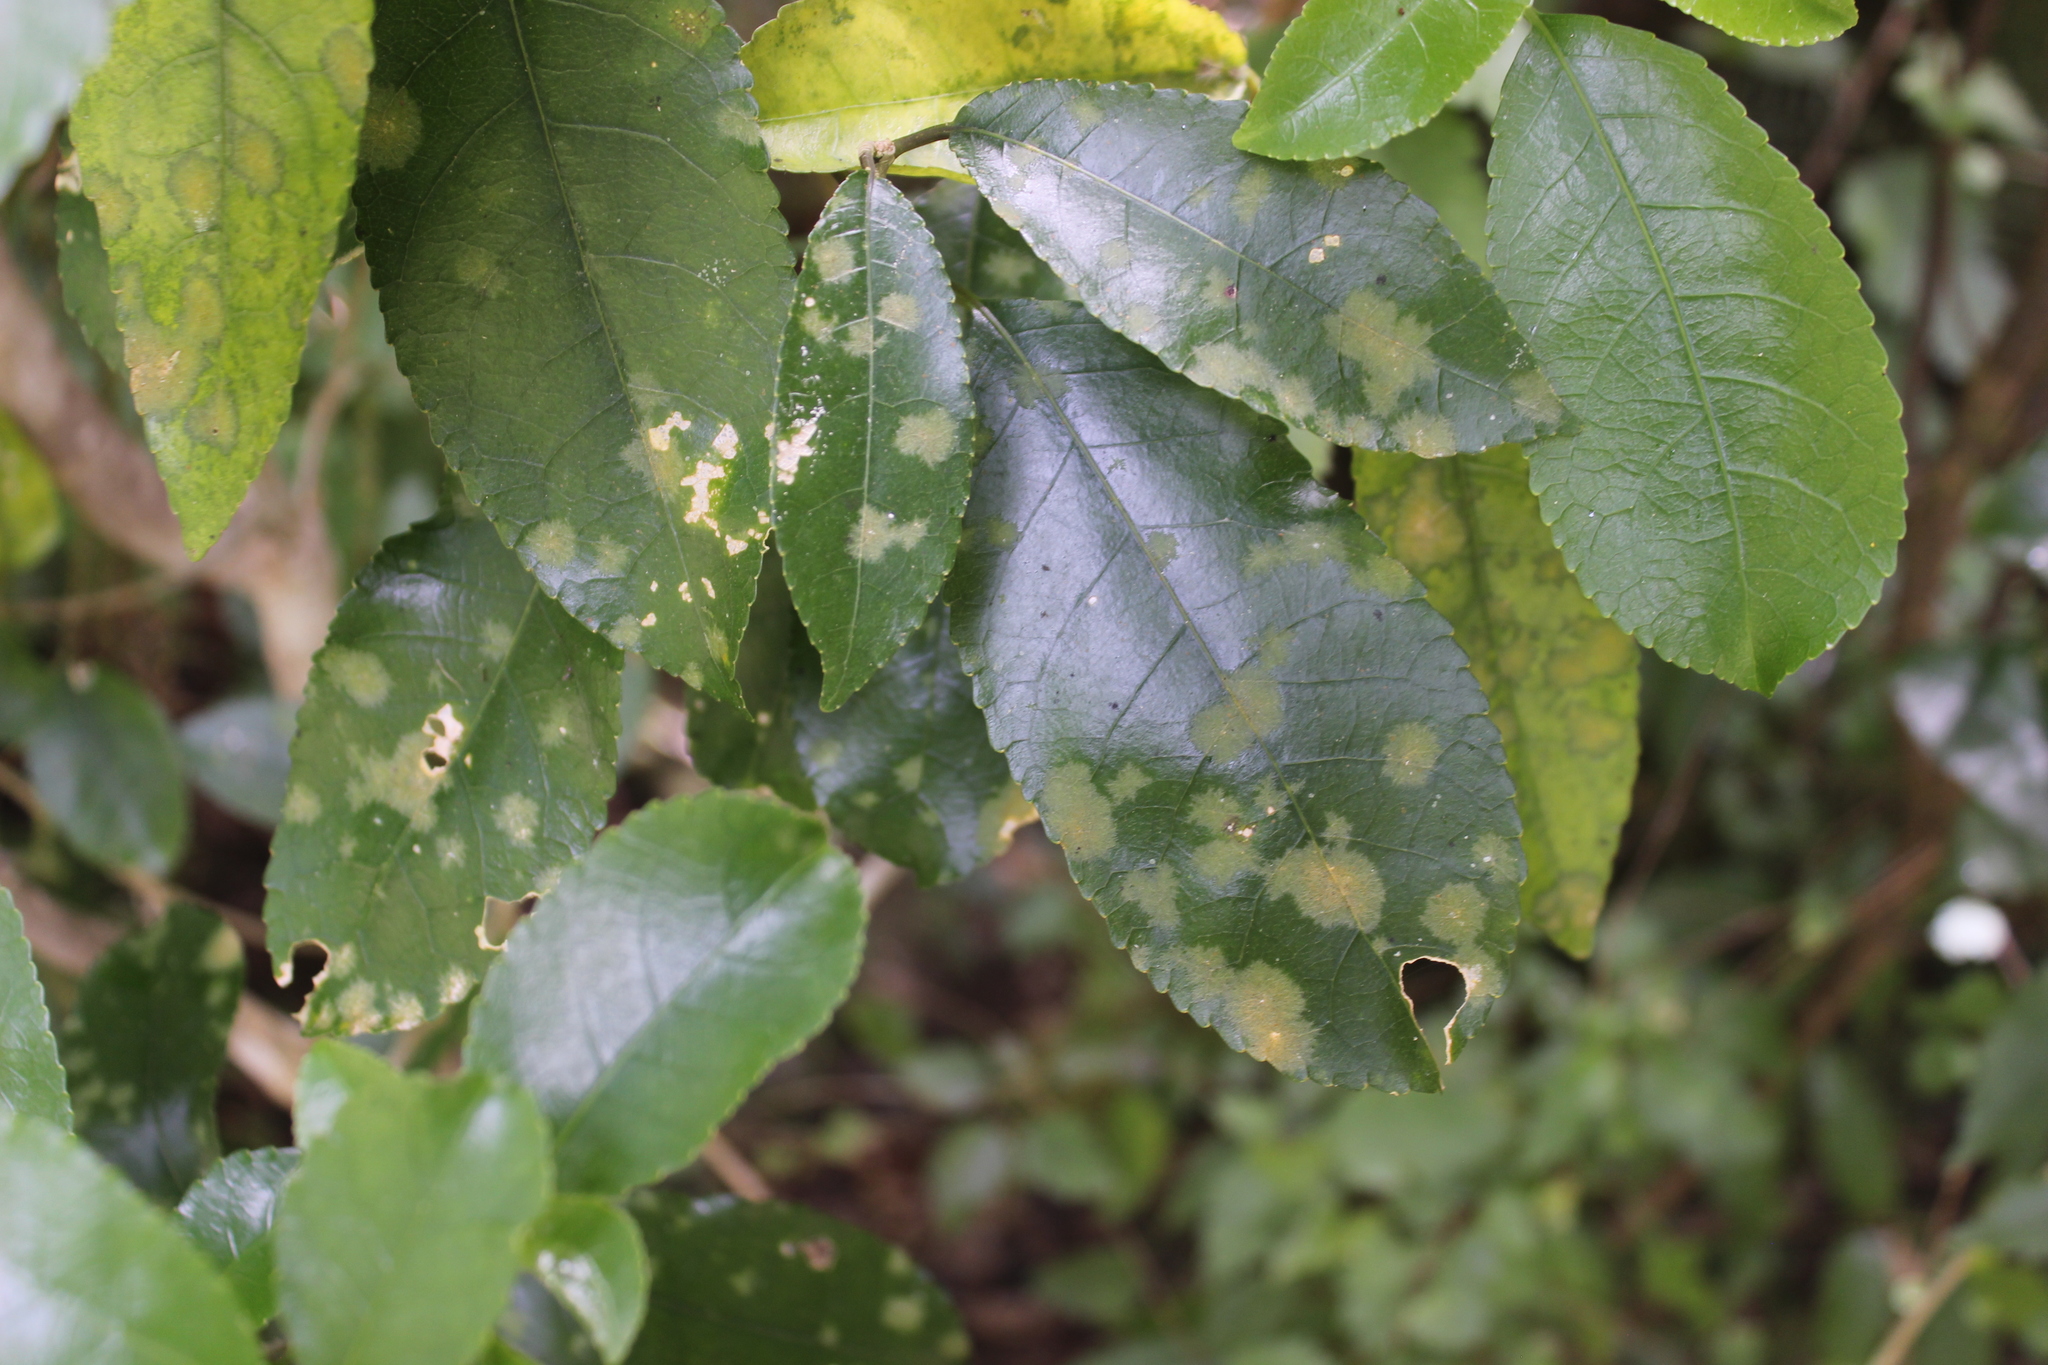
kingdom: Plantae
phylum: Chlorophyta
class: Ulvophyceae
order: Trentepohliales
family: Trentepohliaceae
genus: Cephaleuros
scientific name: Cephaleuros
